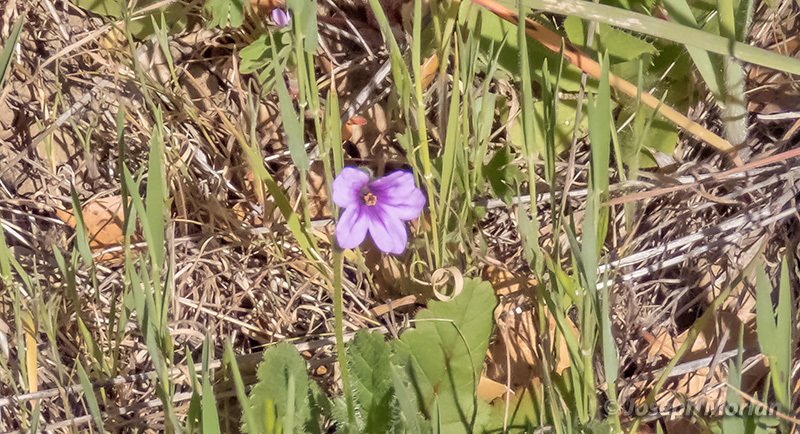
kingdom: Plantae
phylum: Tracheophyta
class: Magnoliopsida
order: Geraniales
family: Geraniaceae
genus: Erodium
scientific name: Erodium botrys
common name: Mediterranean stork's-bill
